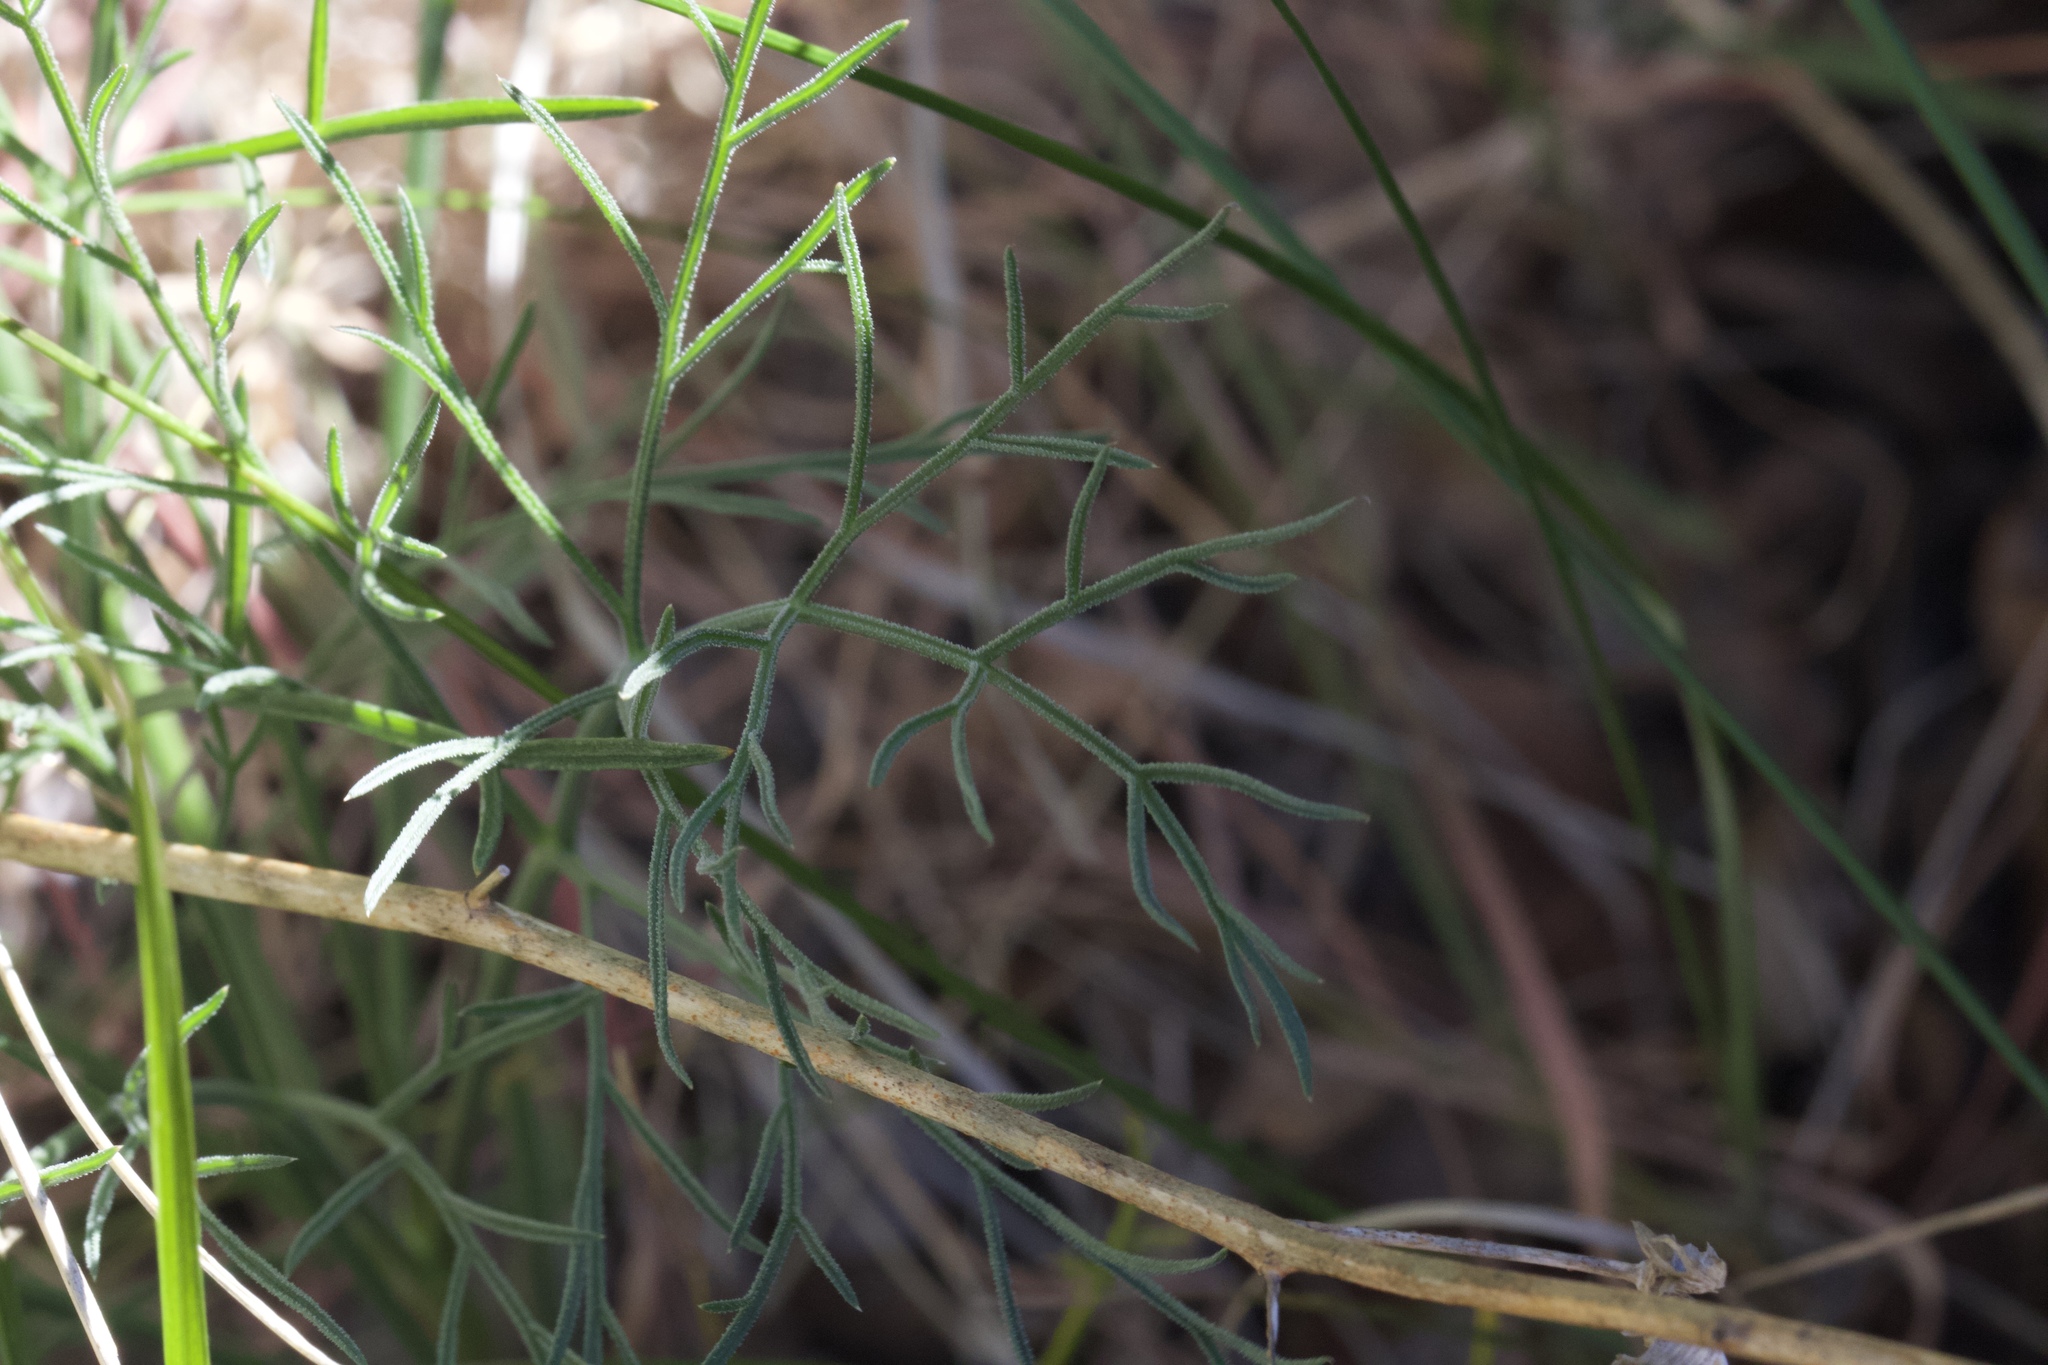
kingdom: Plantae
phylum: Tracheophyta
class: Magnoliopsida
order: Apiales
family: Apiaceae
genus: Lomatium
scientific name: Lomatium hooveri
